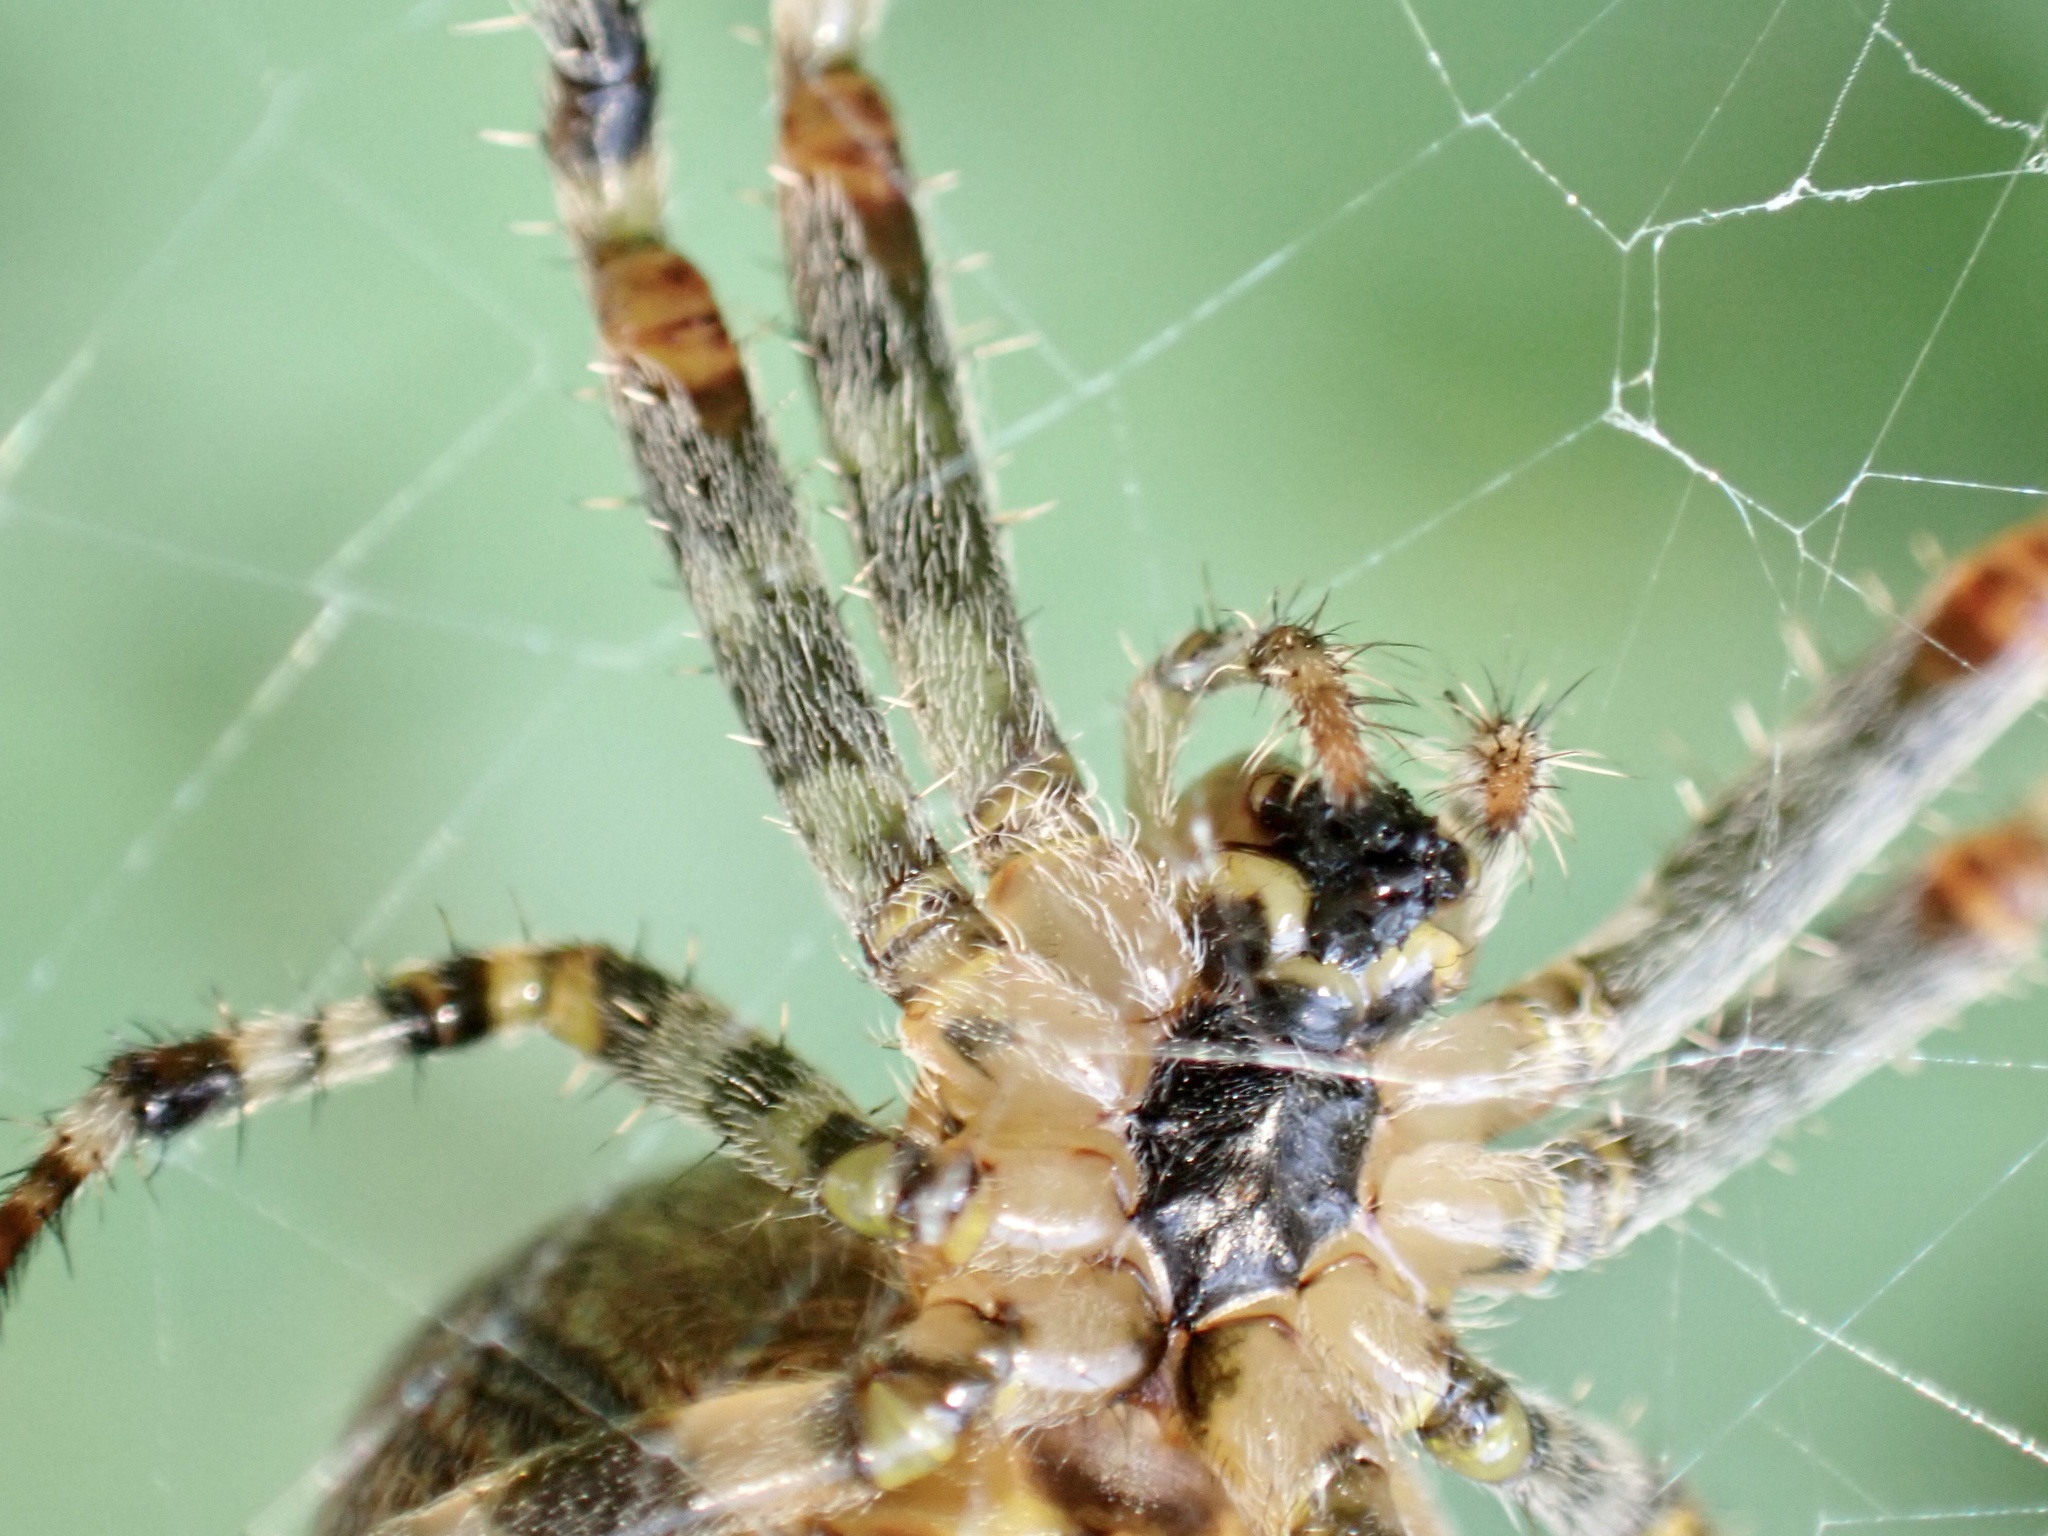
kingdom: Animalia
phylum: Arthropoda
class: Arachnida
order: Araneae
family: Araneidae
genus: Araneus
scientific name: Araneus diadematus
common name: Cross orbweaver
